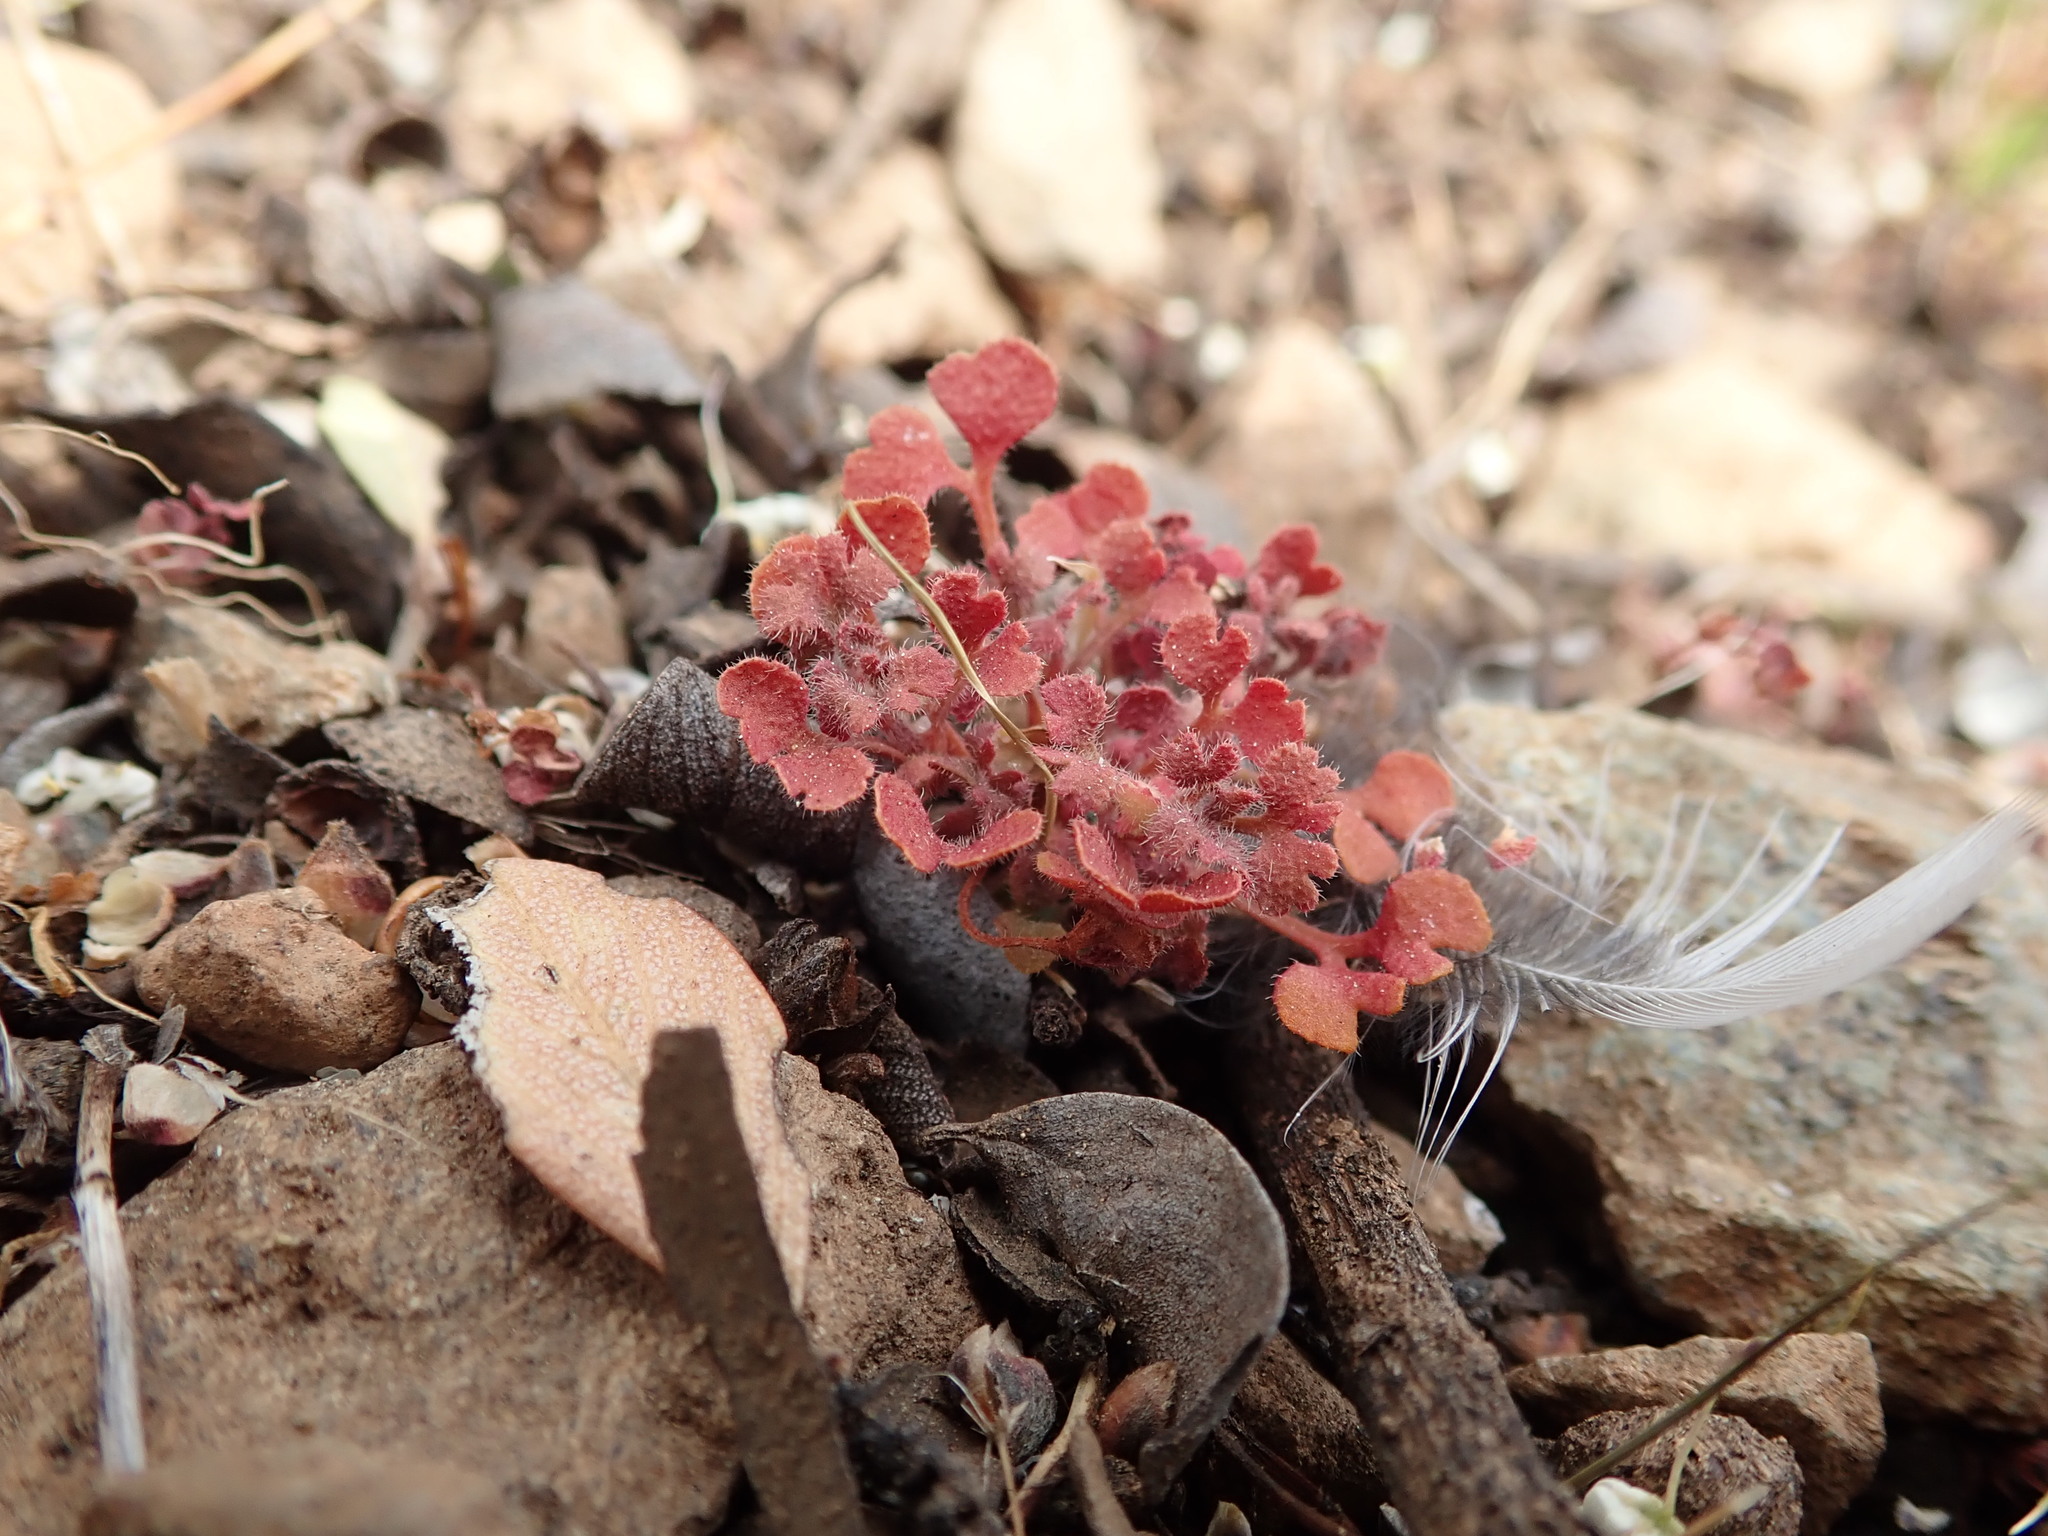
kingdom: Plantae
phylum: Tracheophyta
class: Magnoliopsida
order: Caryophyllales
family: Polygonaceae
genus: Pterostegia
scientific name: Pterostegia drymarioides
